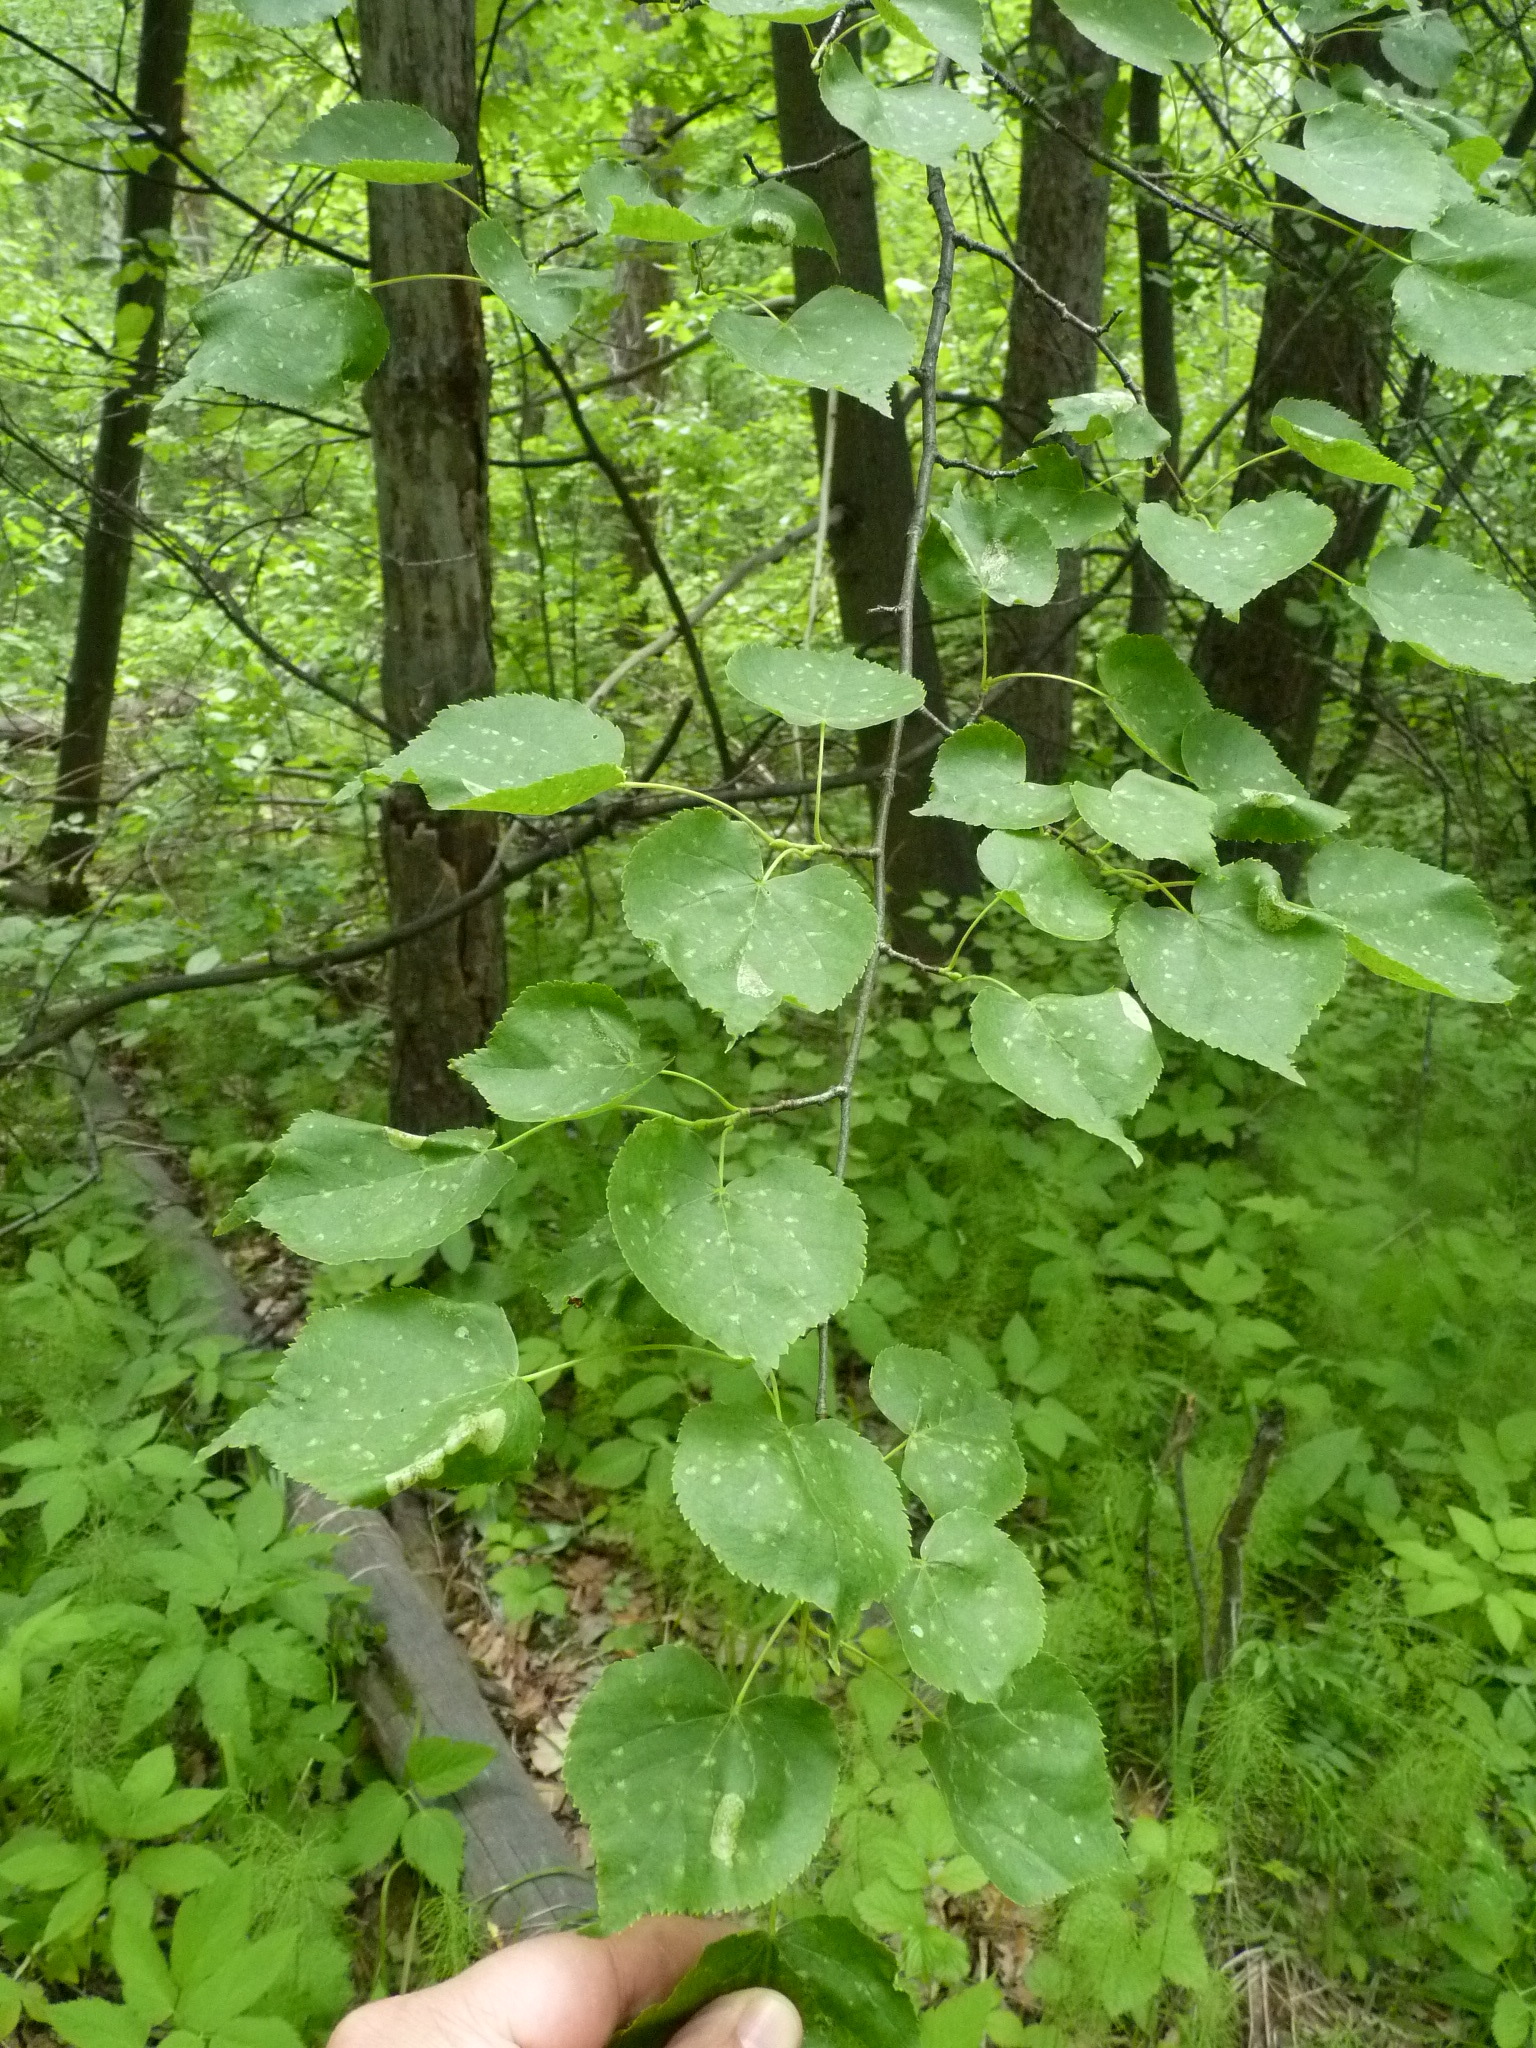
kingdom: Plantae
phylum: Tracheophyta
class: Magnoliopsida
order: Malvales
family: Malvaceae
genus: Tilia
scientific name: Tilia cordata
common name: Small-leaved lime
